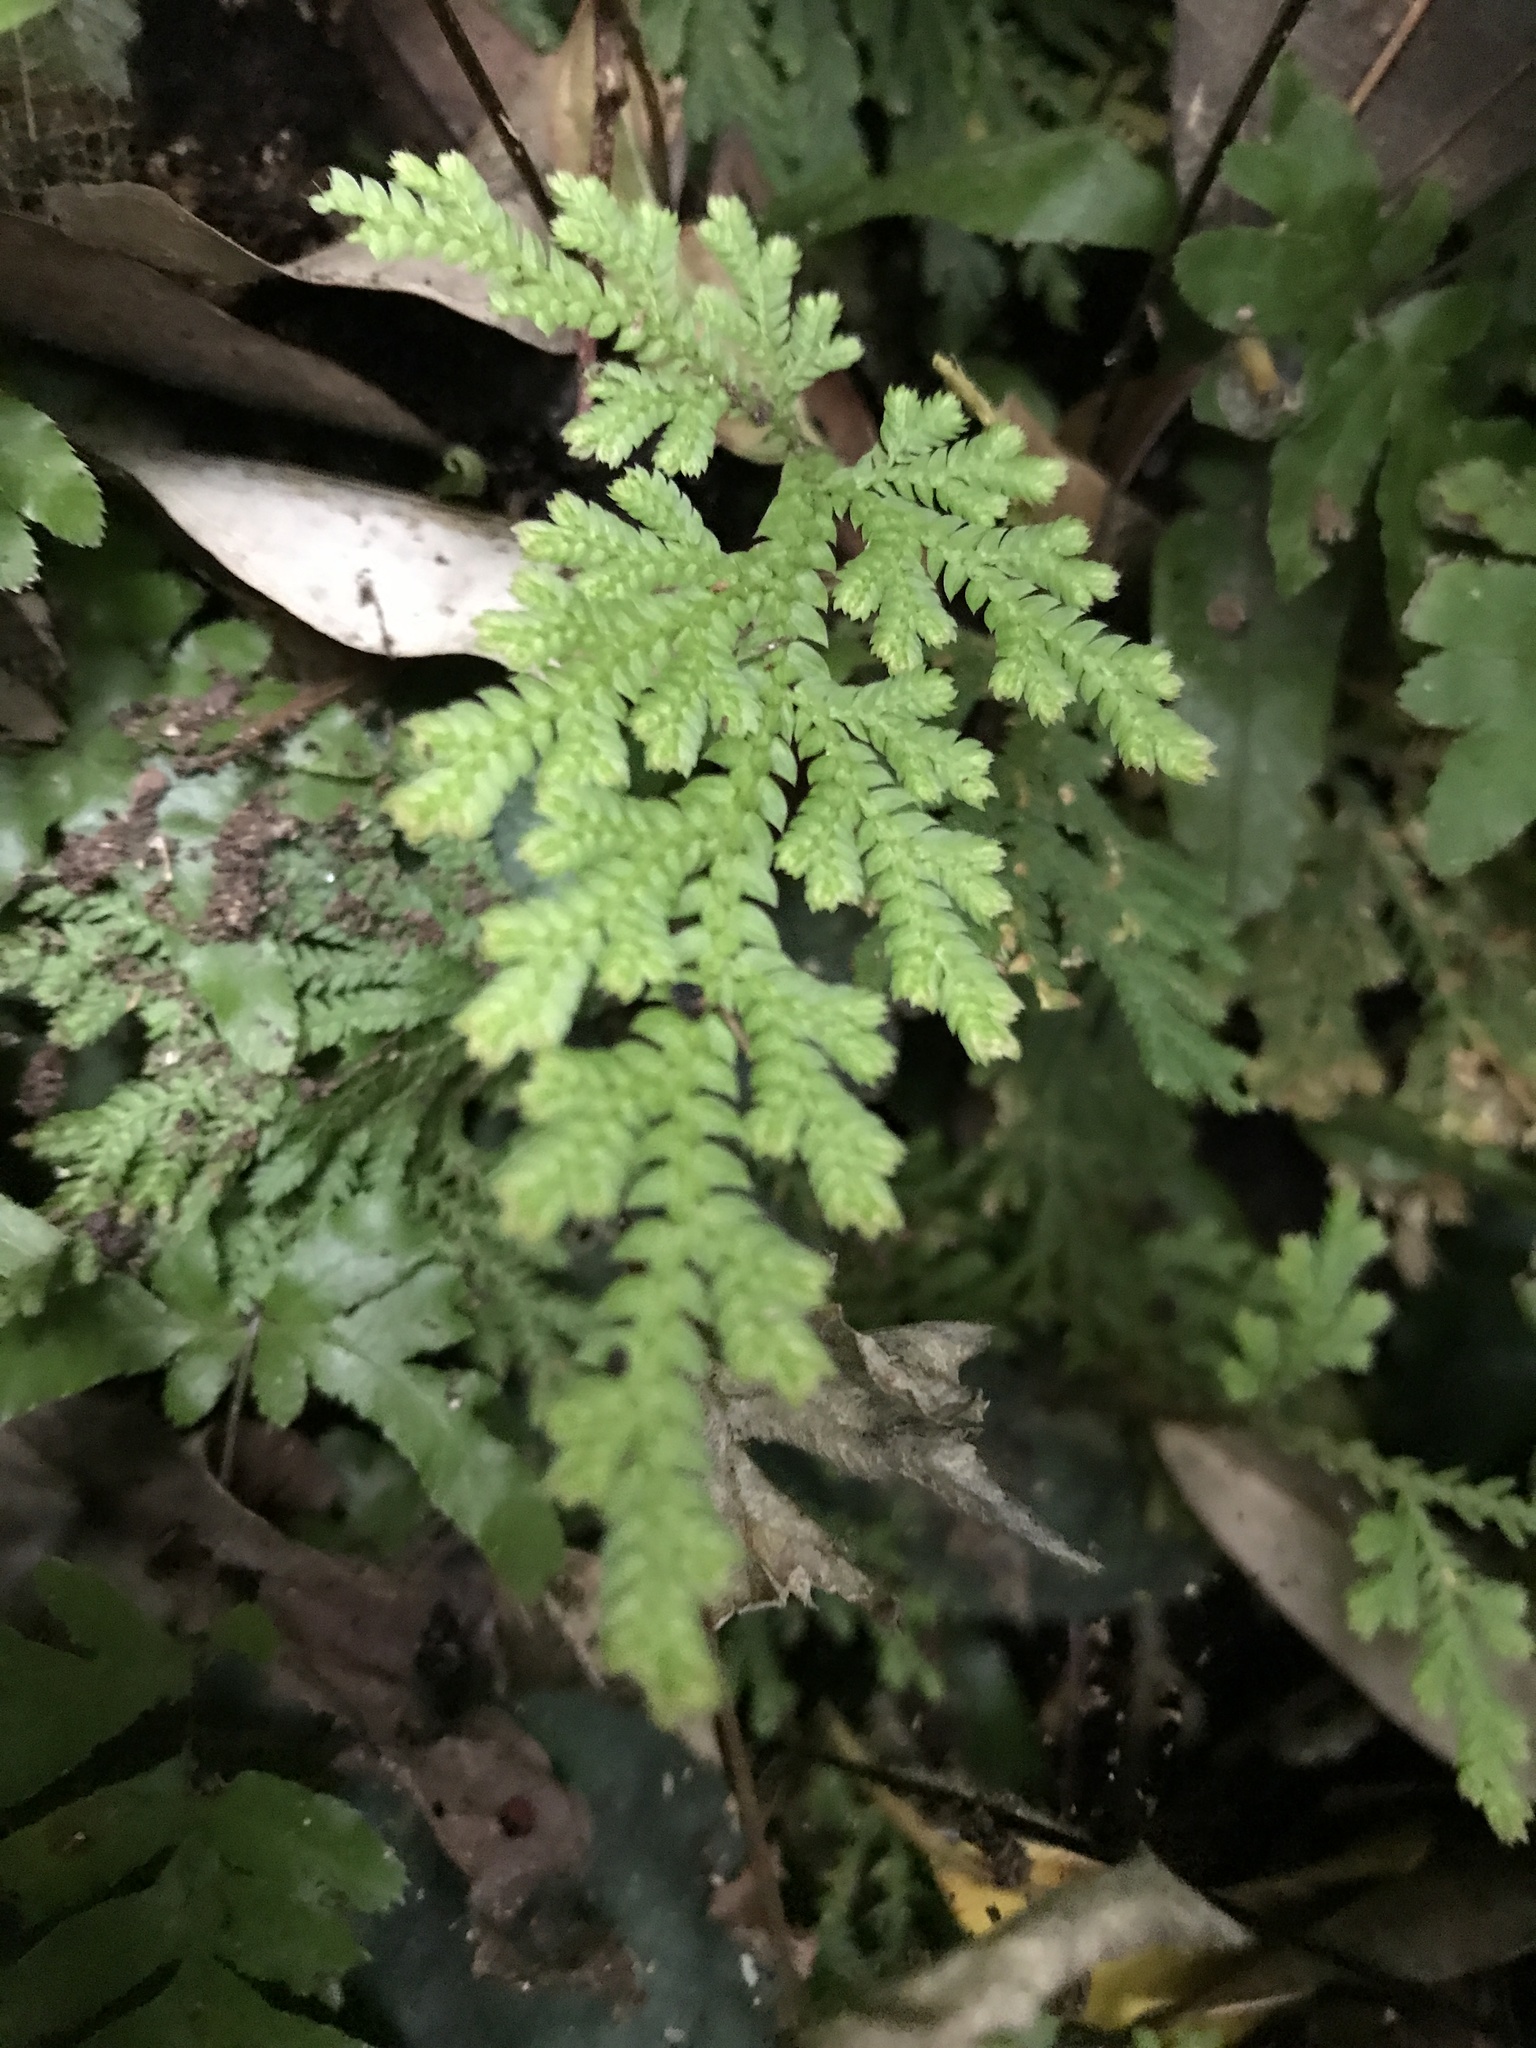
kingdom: Plantae
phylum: Tracheophyta
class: Lycopodiopsida
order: Selaginellales
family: Selaginellaceae
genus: Selaginella
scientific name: Selaginella moellendorffii
